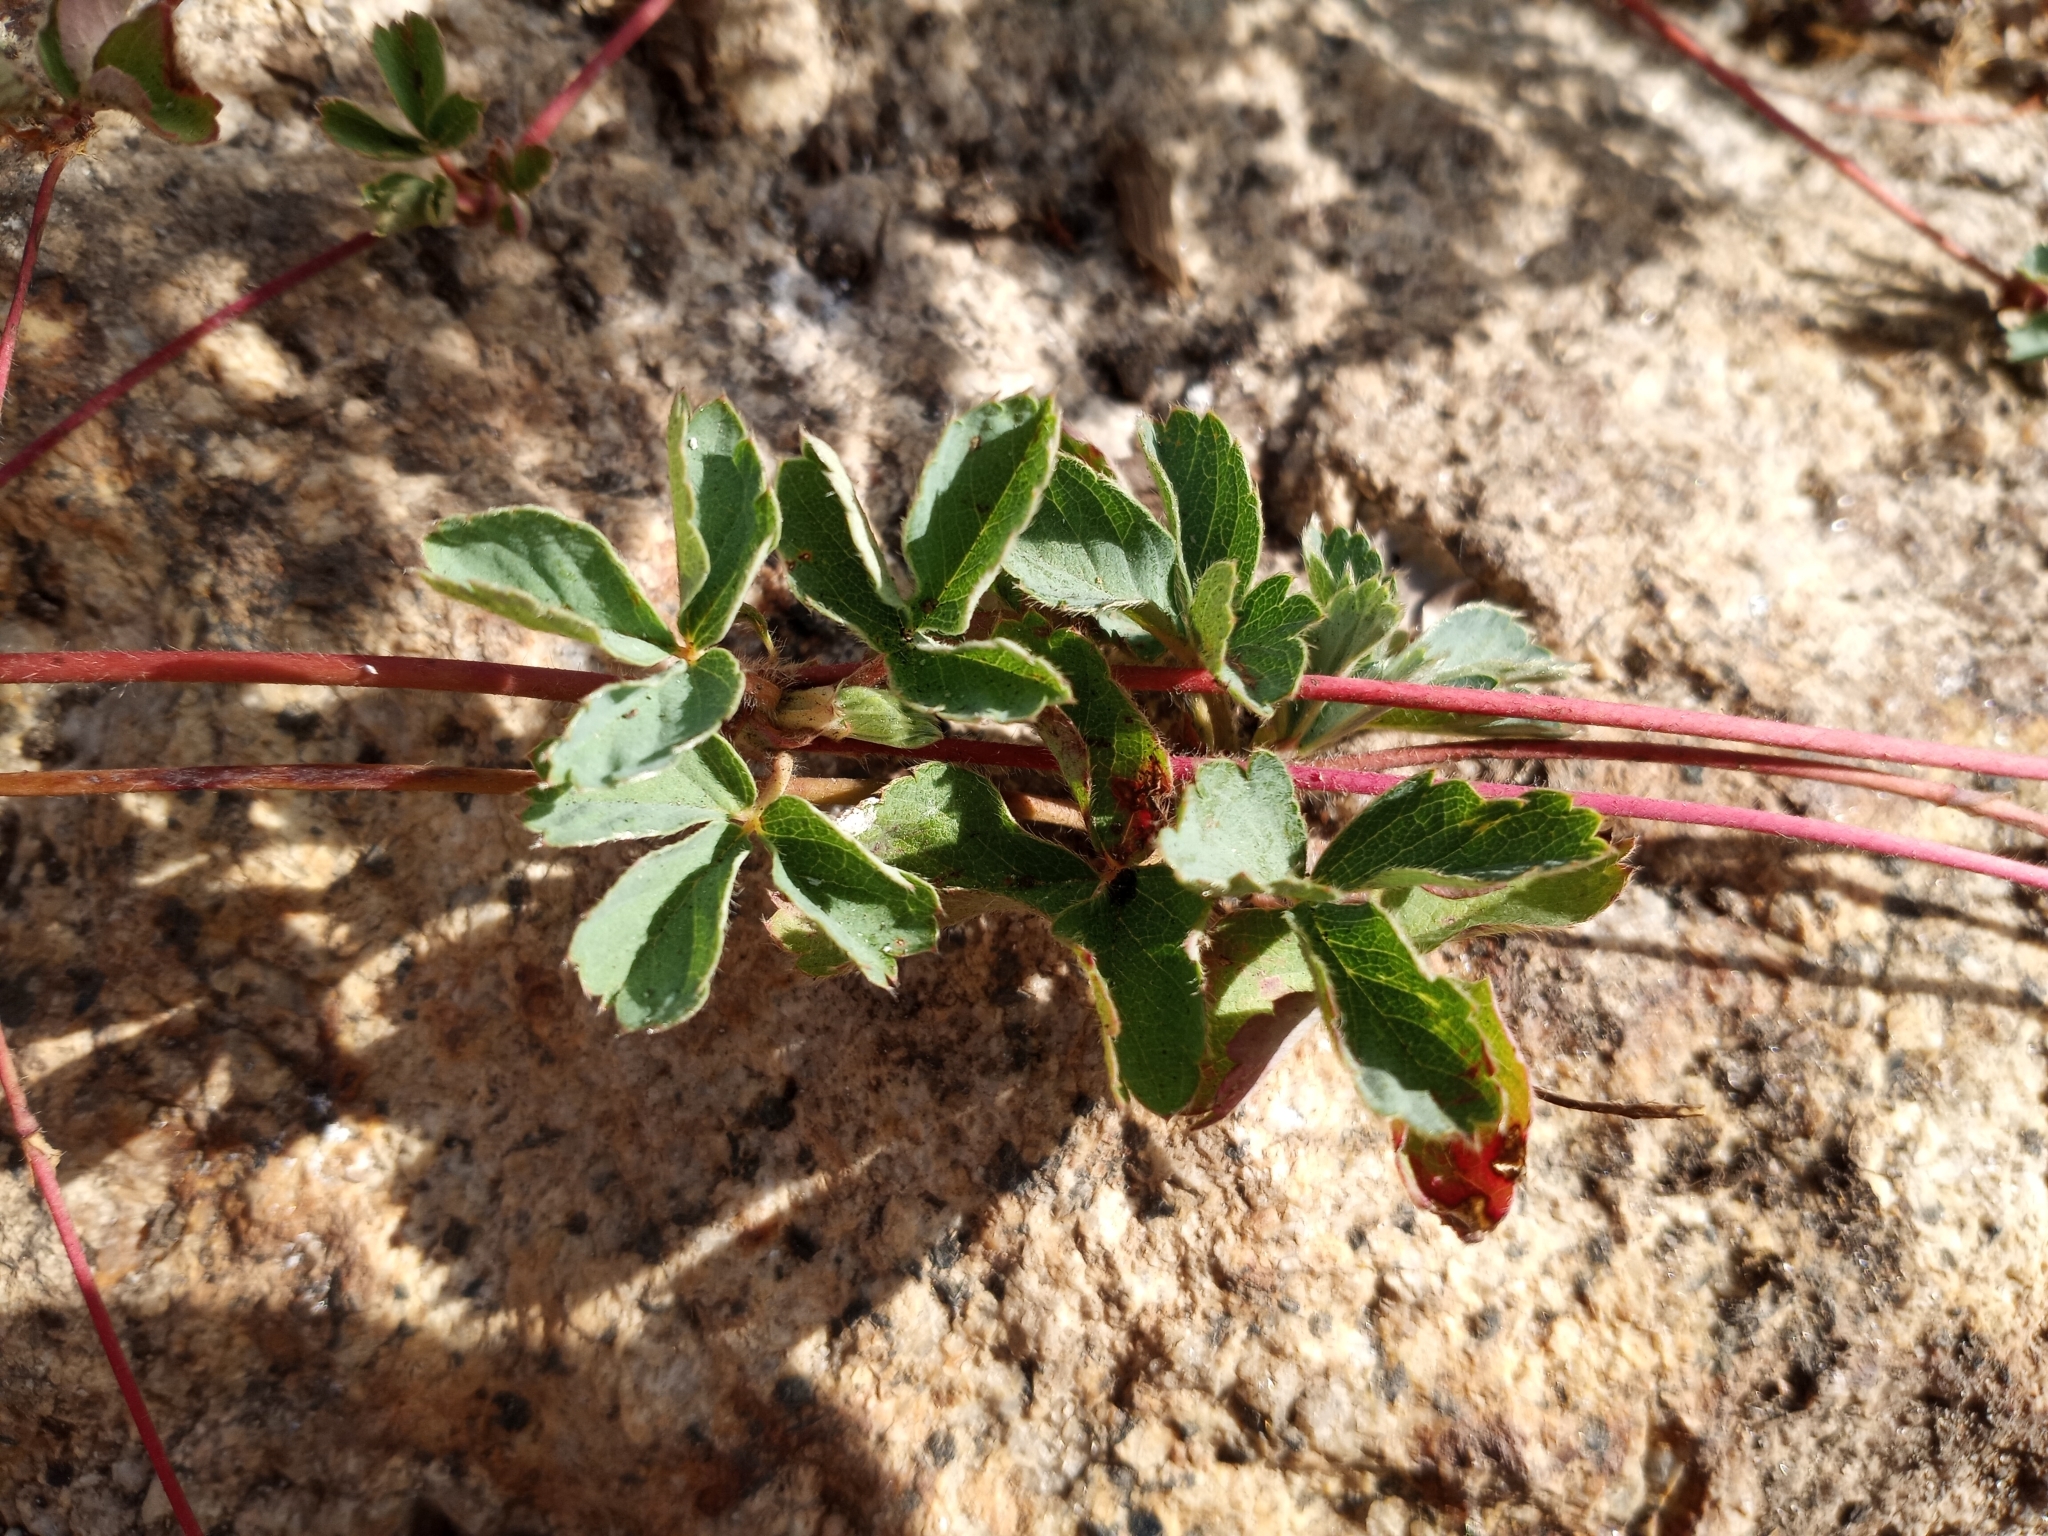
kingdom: Plantae
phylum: Tracheophyta
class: Magnoliopsida
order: Rosales
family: Rosaceae
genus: Fragaria
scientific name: Fragaria virginiana
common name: Thickleaved wild strawberry
